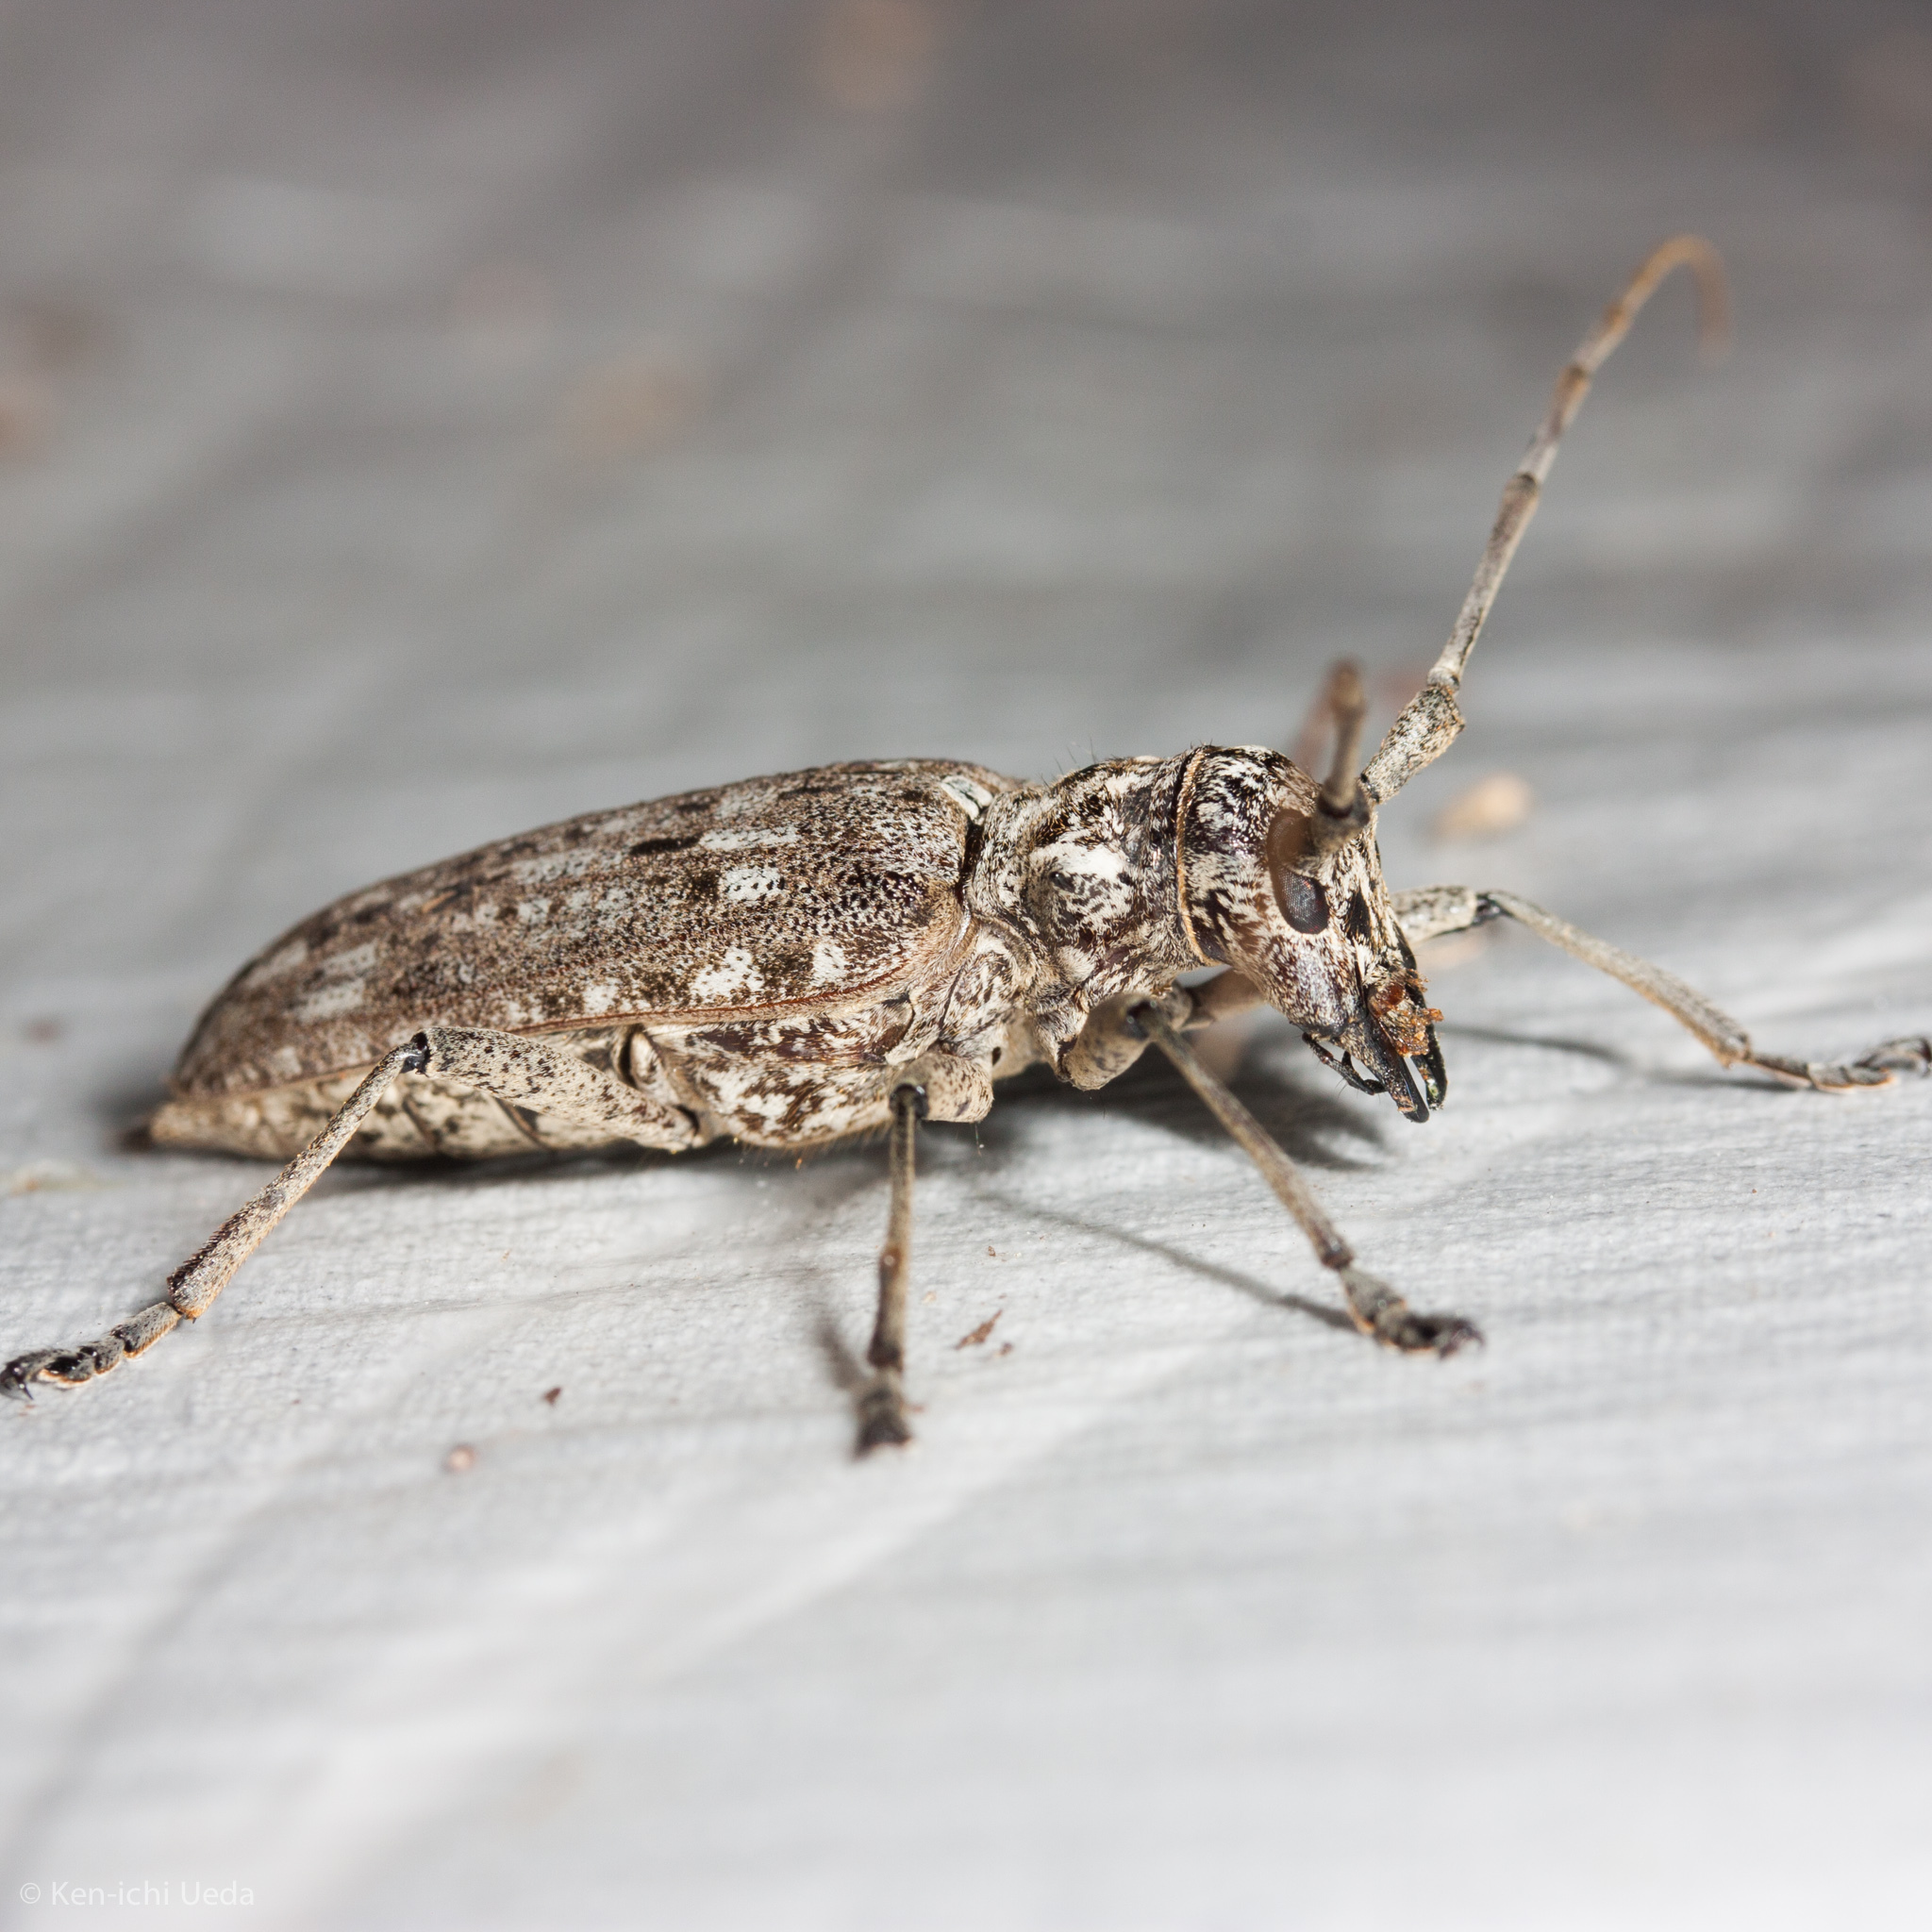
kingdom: Animalia
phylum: Arthropoda
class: Insecta
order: Coleoptera
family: Cerambycidae
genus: Monochamus
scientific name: Monochamus notatus
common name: Northeastern pine sawyer beetle
